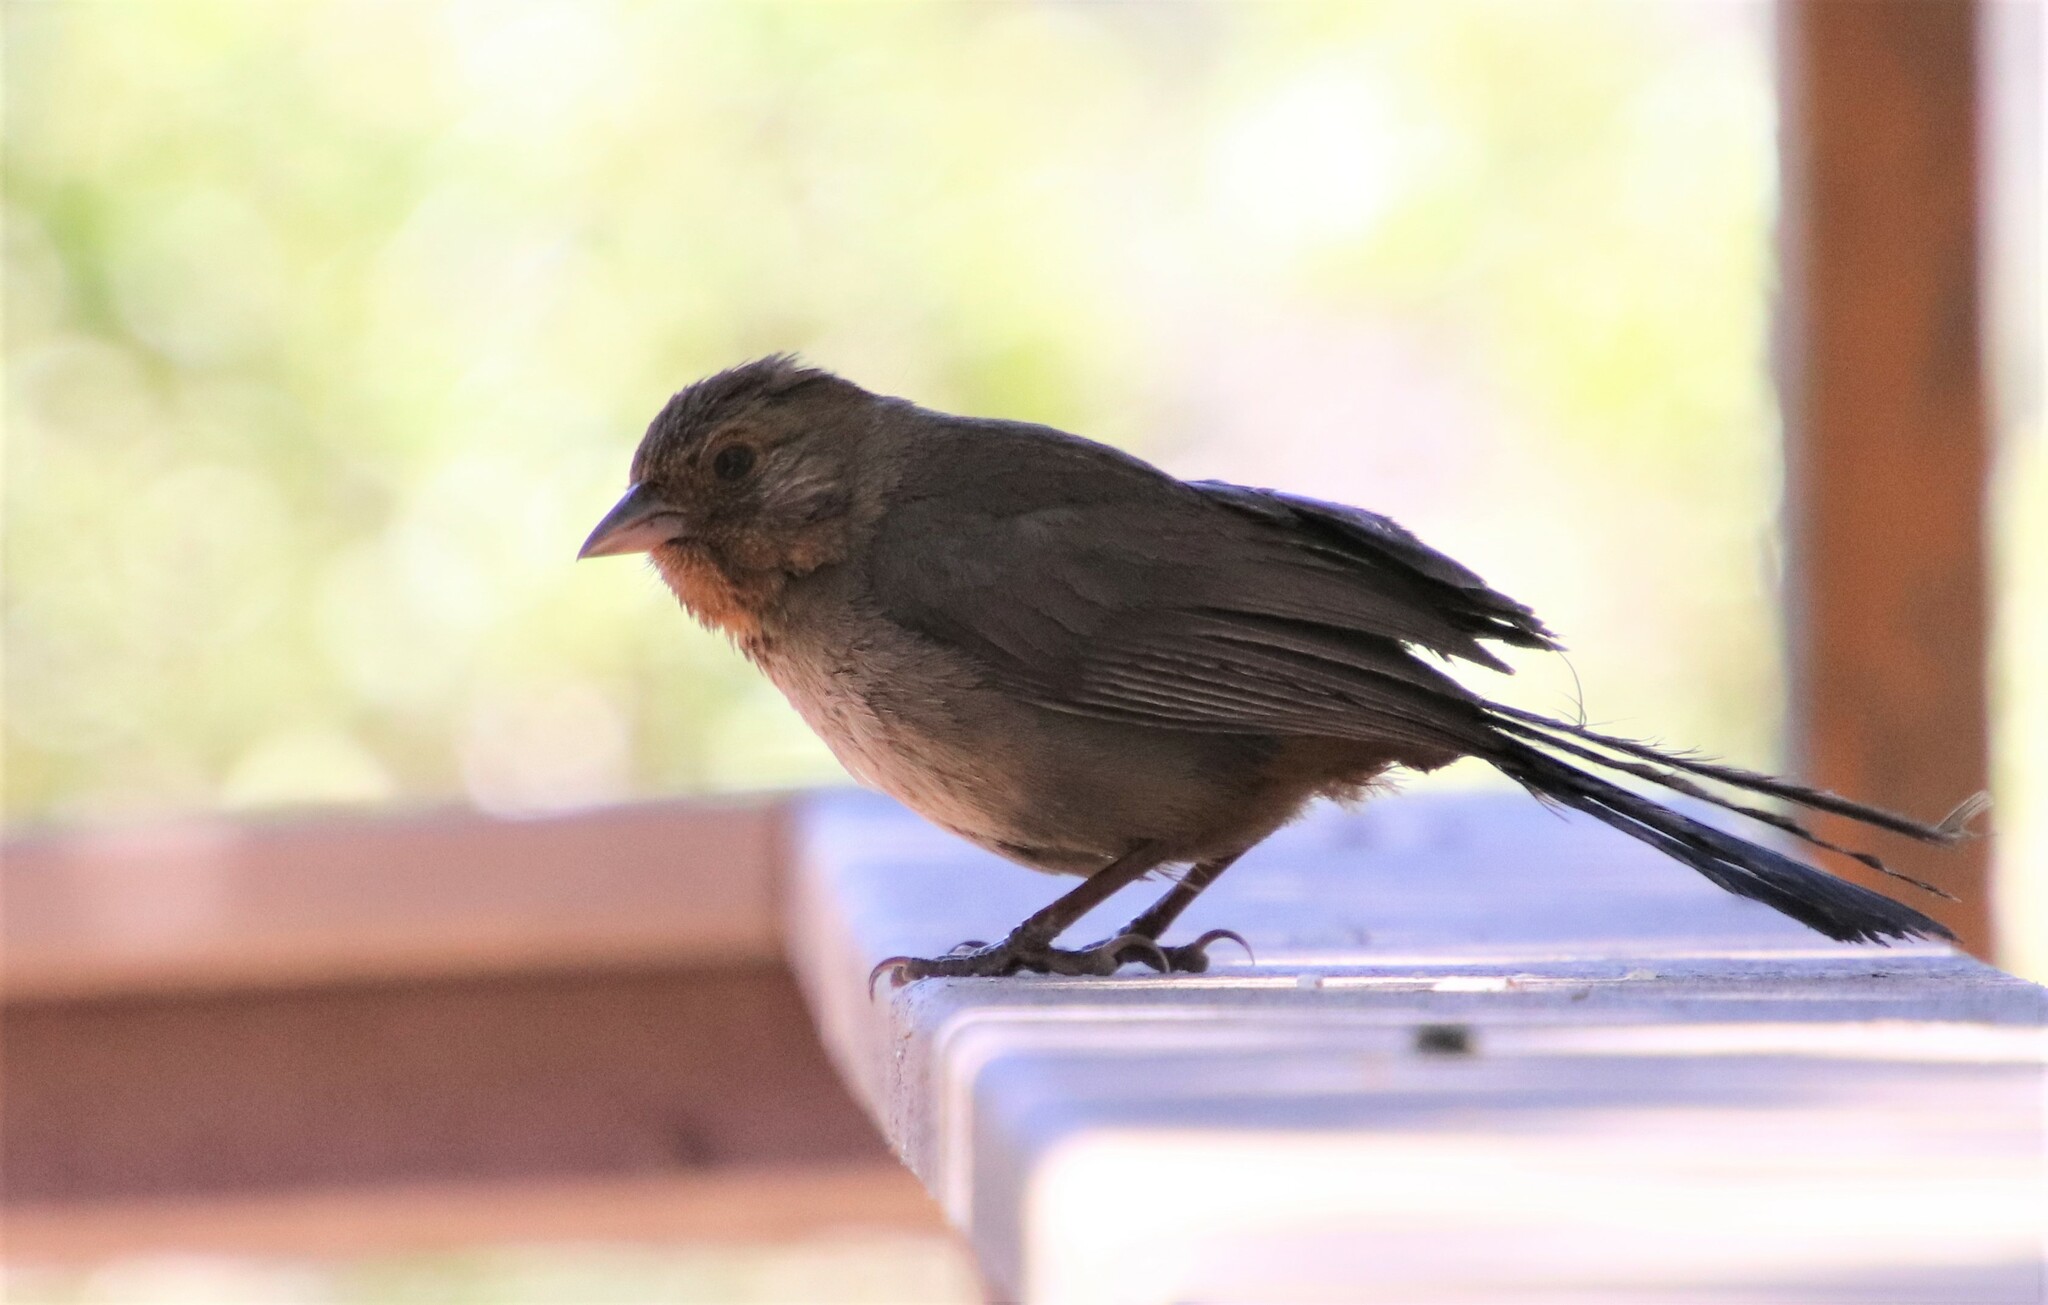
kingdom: Animalia
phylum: Chordata
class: Aves
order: Passeriformes
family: Passerellidae
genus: Melozone
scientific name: Melozone crissalis
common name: California towhee
